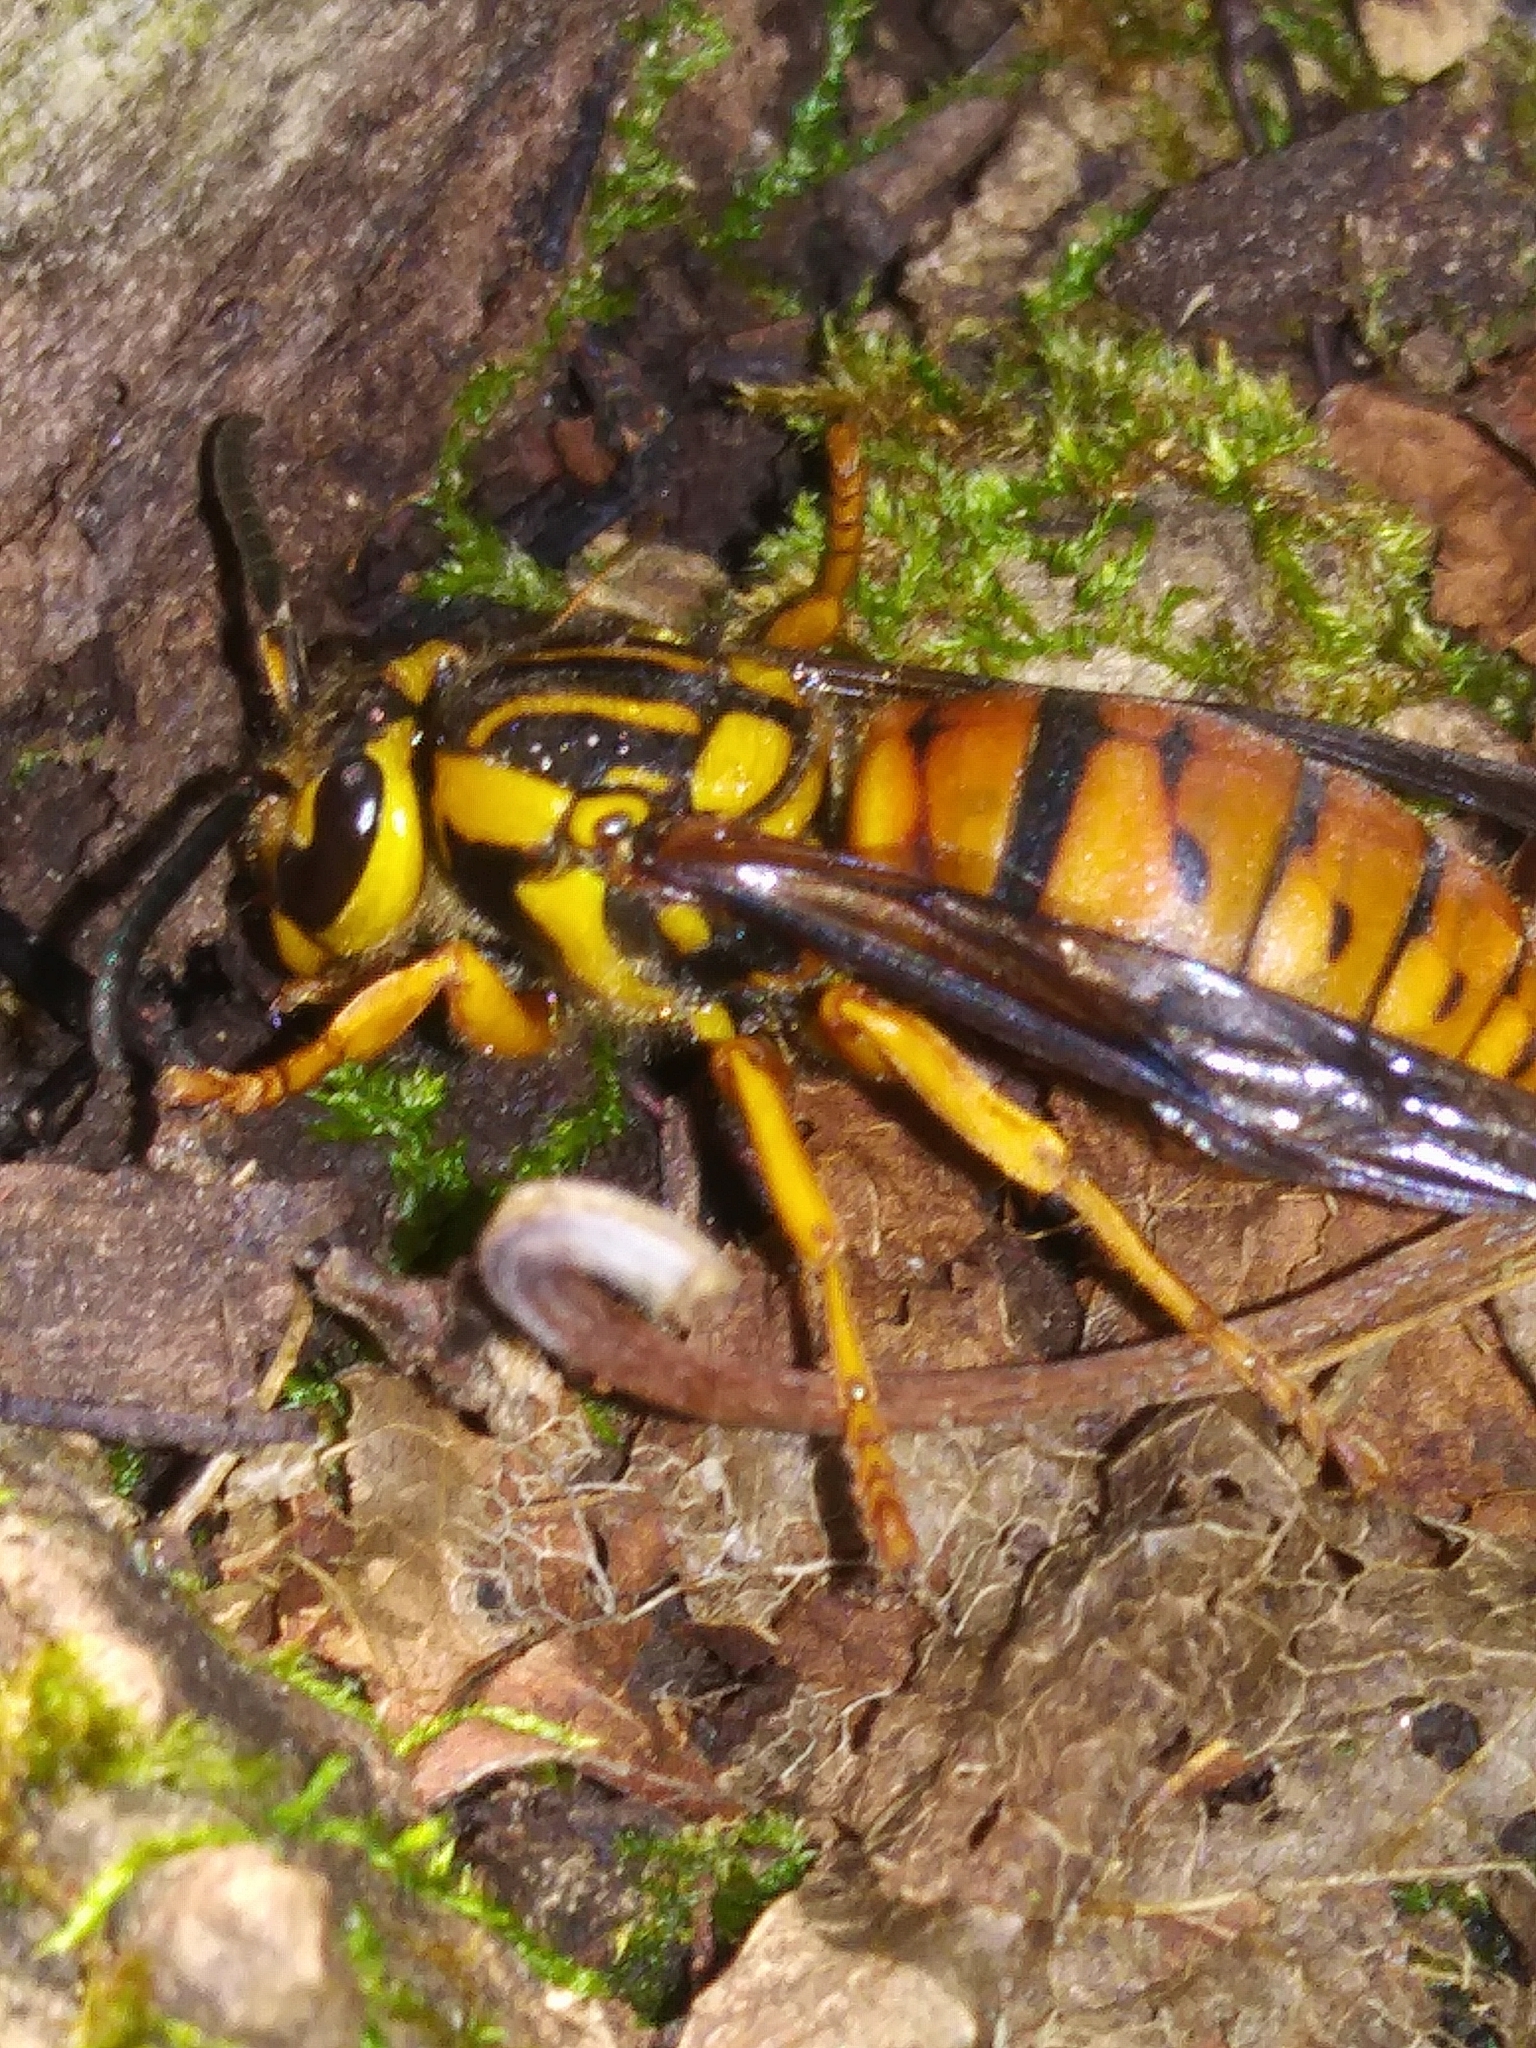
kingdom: Animalia
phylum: Arthropoda
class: Insecta
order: Hymenoptera
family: Vespidae
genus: Vespula
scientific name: Vespula squamosa
